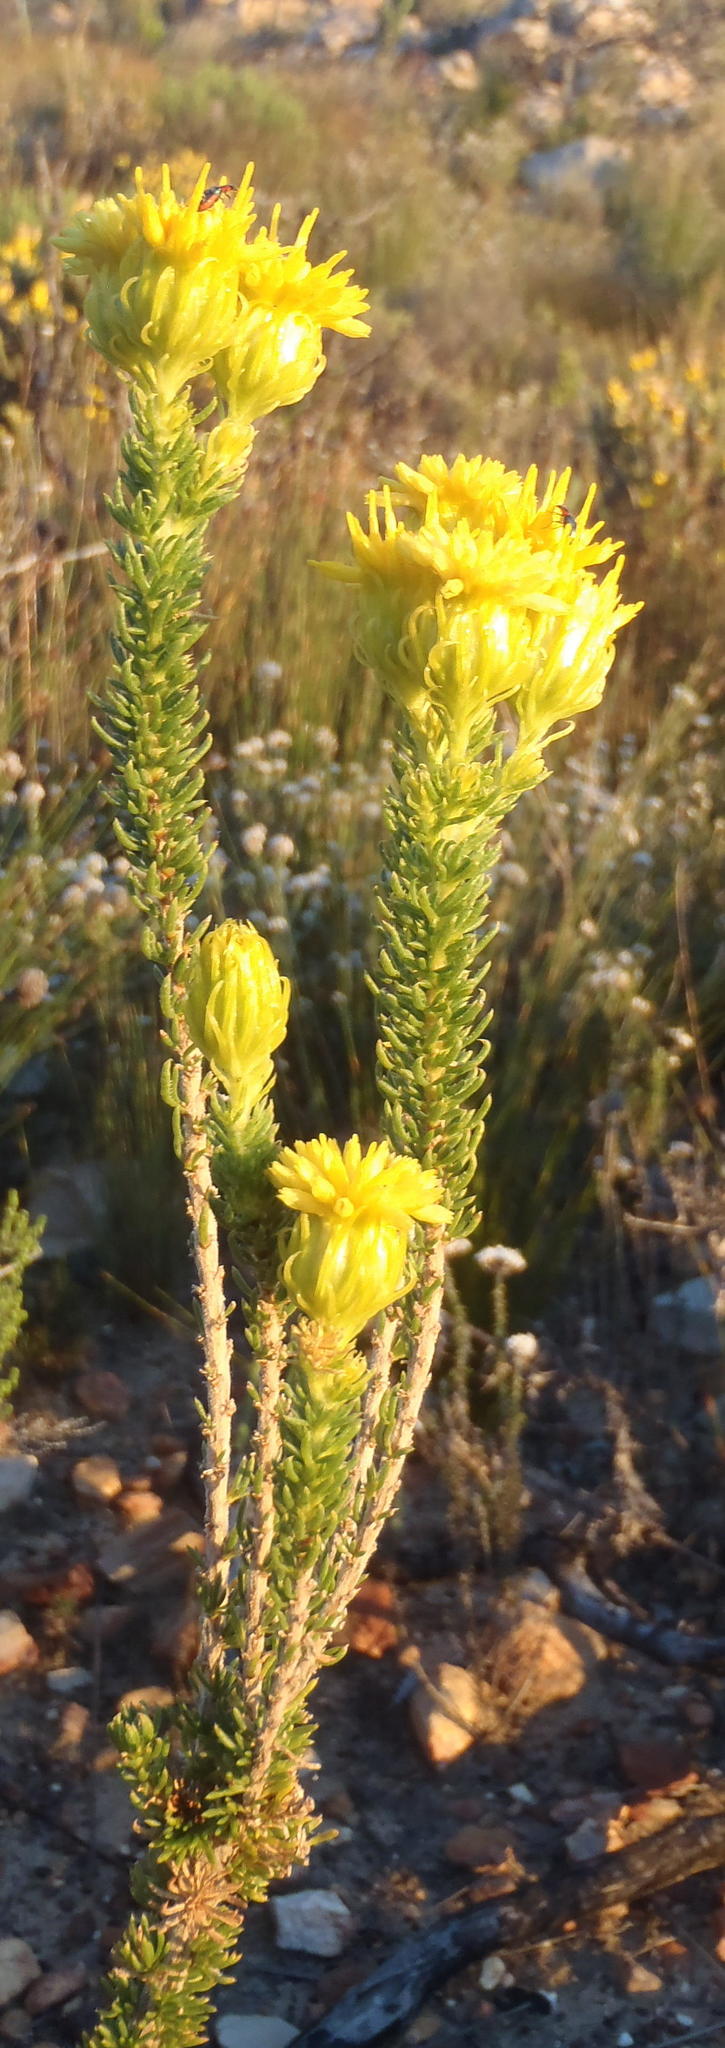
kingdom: Plantae
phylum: Tracheophyta
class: Magnoliopsida
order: Asterales
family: Asteraceae
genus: Pteronia
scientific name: Pteronia camphorata
